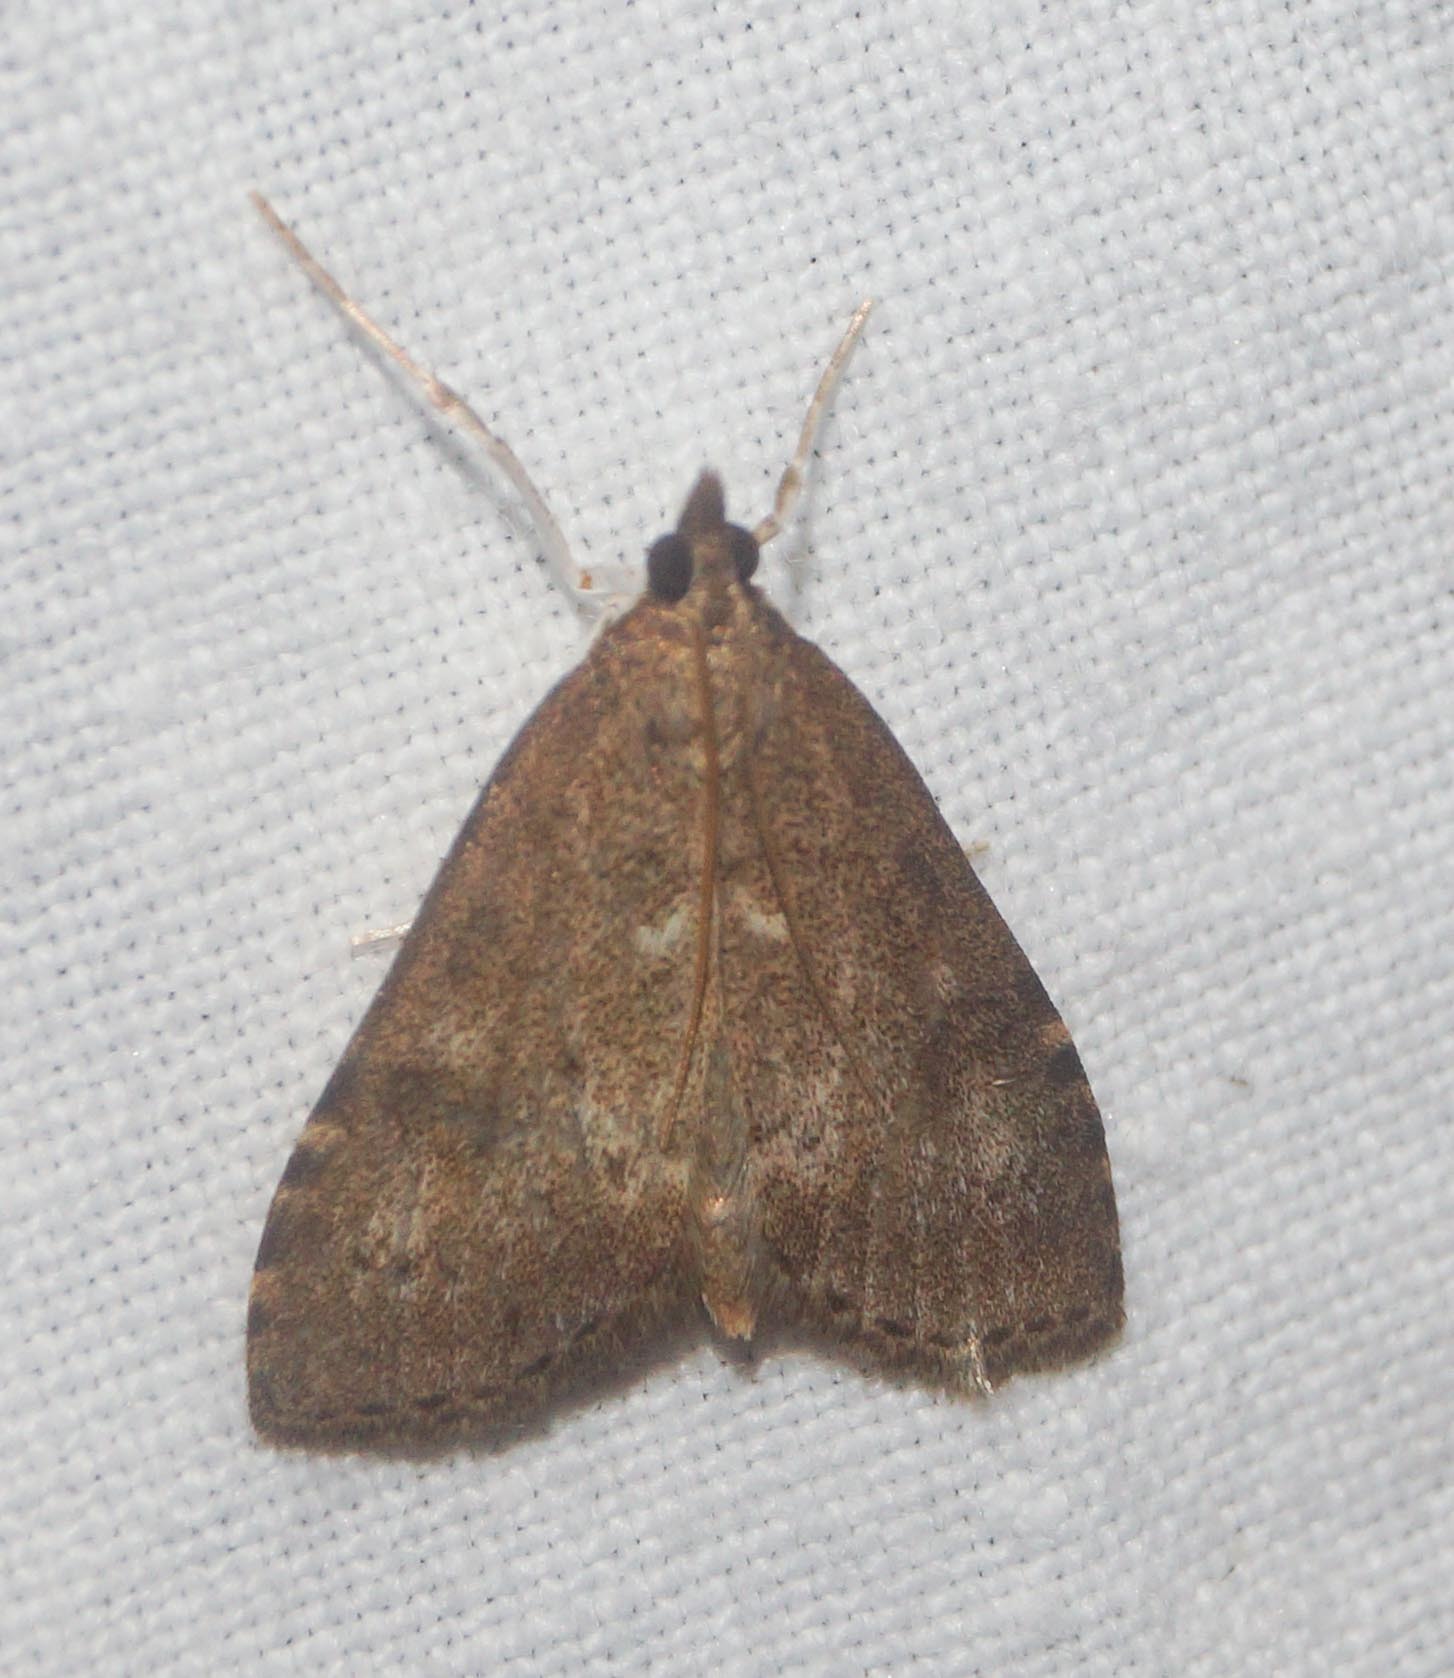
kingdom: Animalia
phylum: Arthropoda
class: Insecta
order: Lepidoptera
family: Crambidae
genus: Udea
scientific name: Udea prunalis
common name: Dusky pearl
